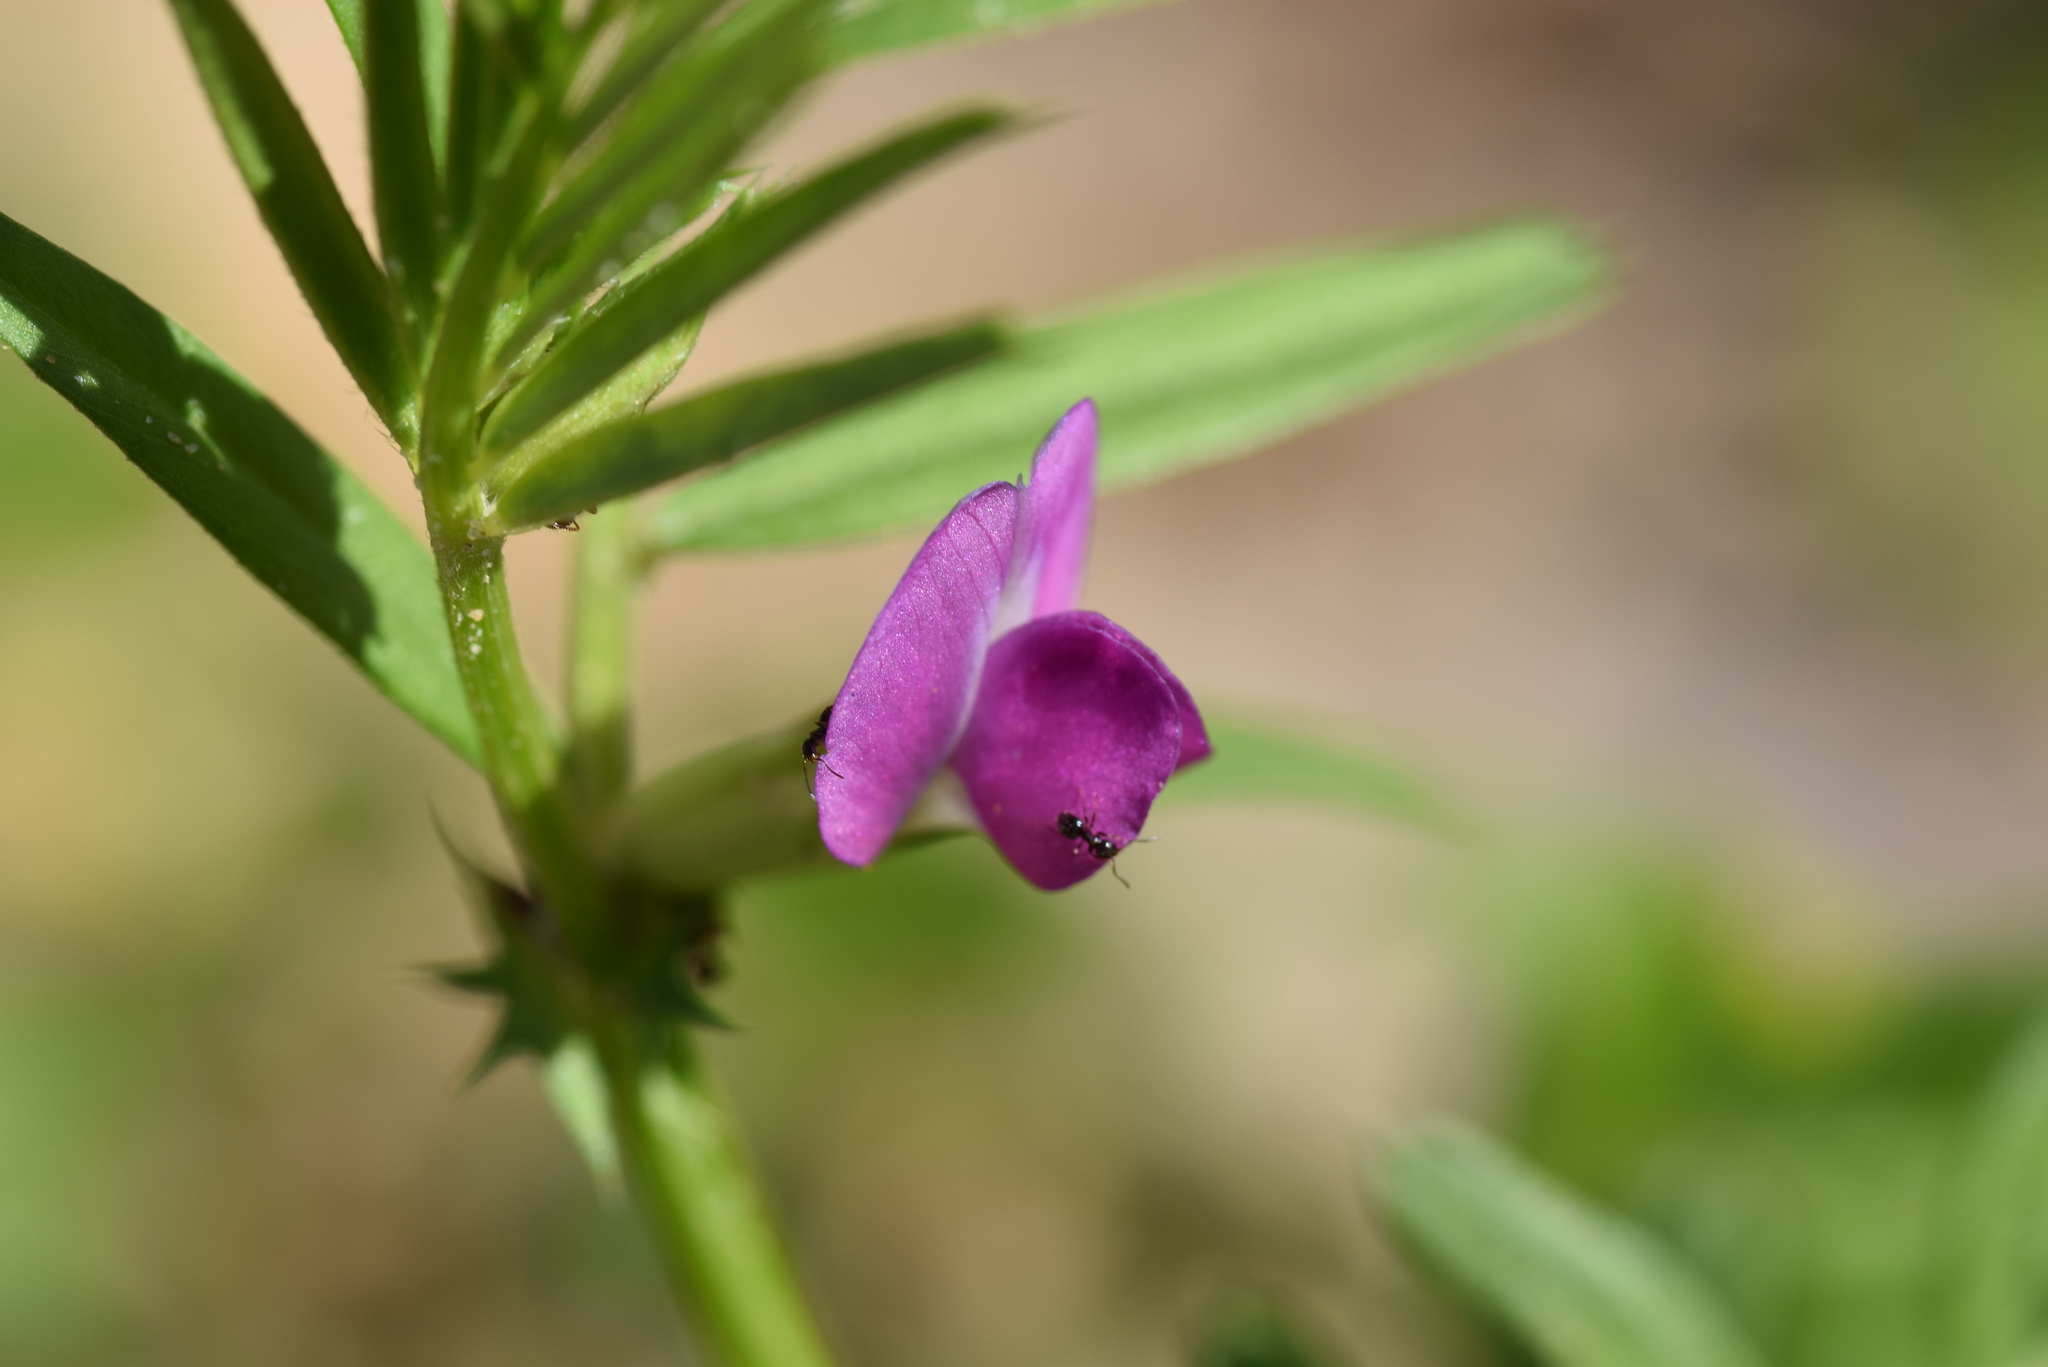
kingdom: Animalia
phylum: Arthropoda
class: Insecta
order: Hymenoptera
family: Formicidae
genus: Brachymyrmex
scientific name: Brachymyrmex patagonicus
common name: Dark rover ant
